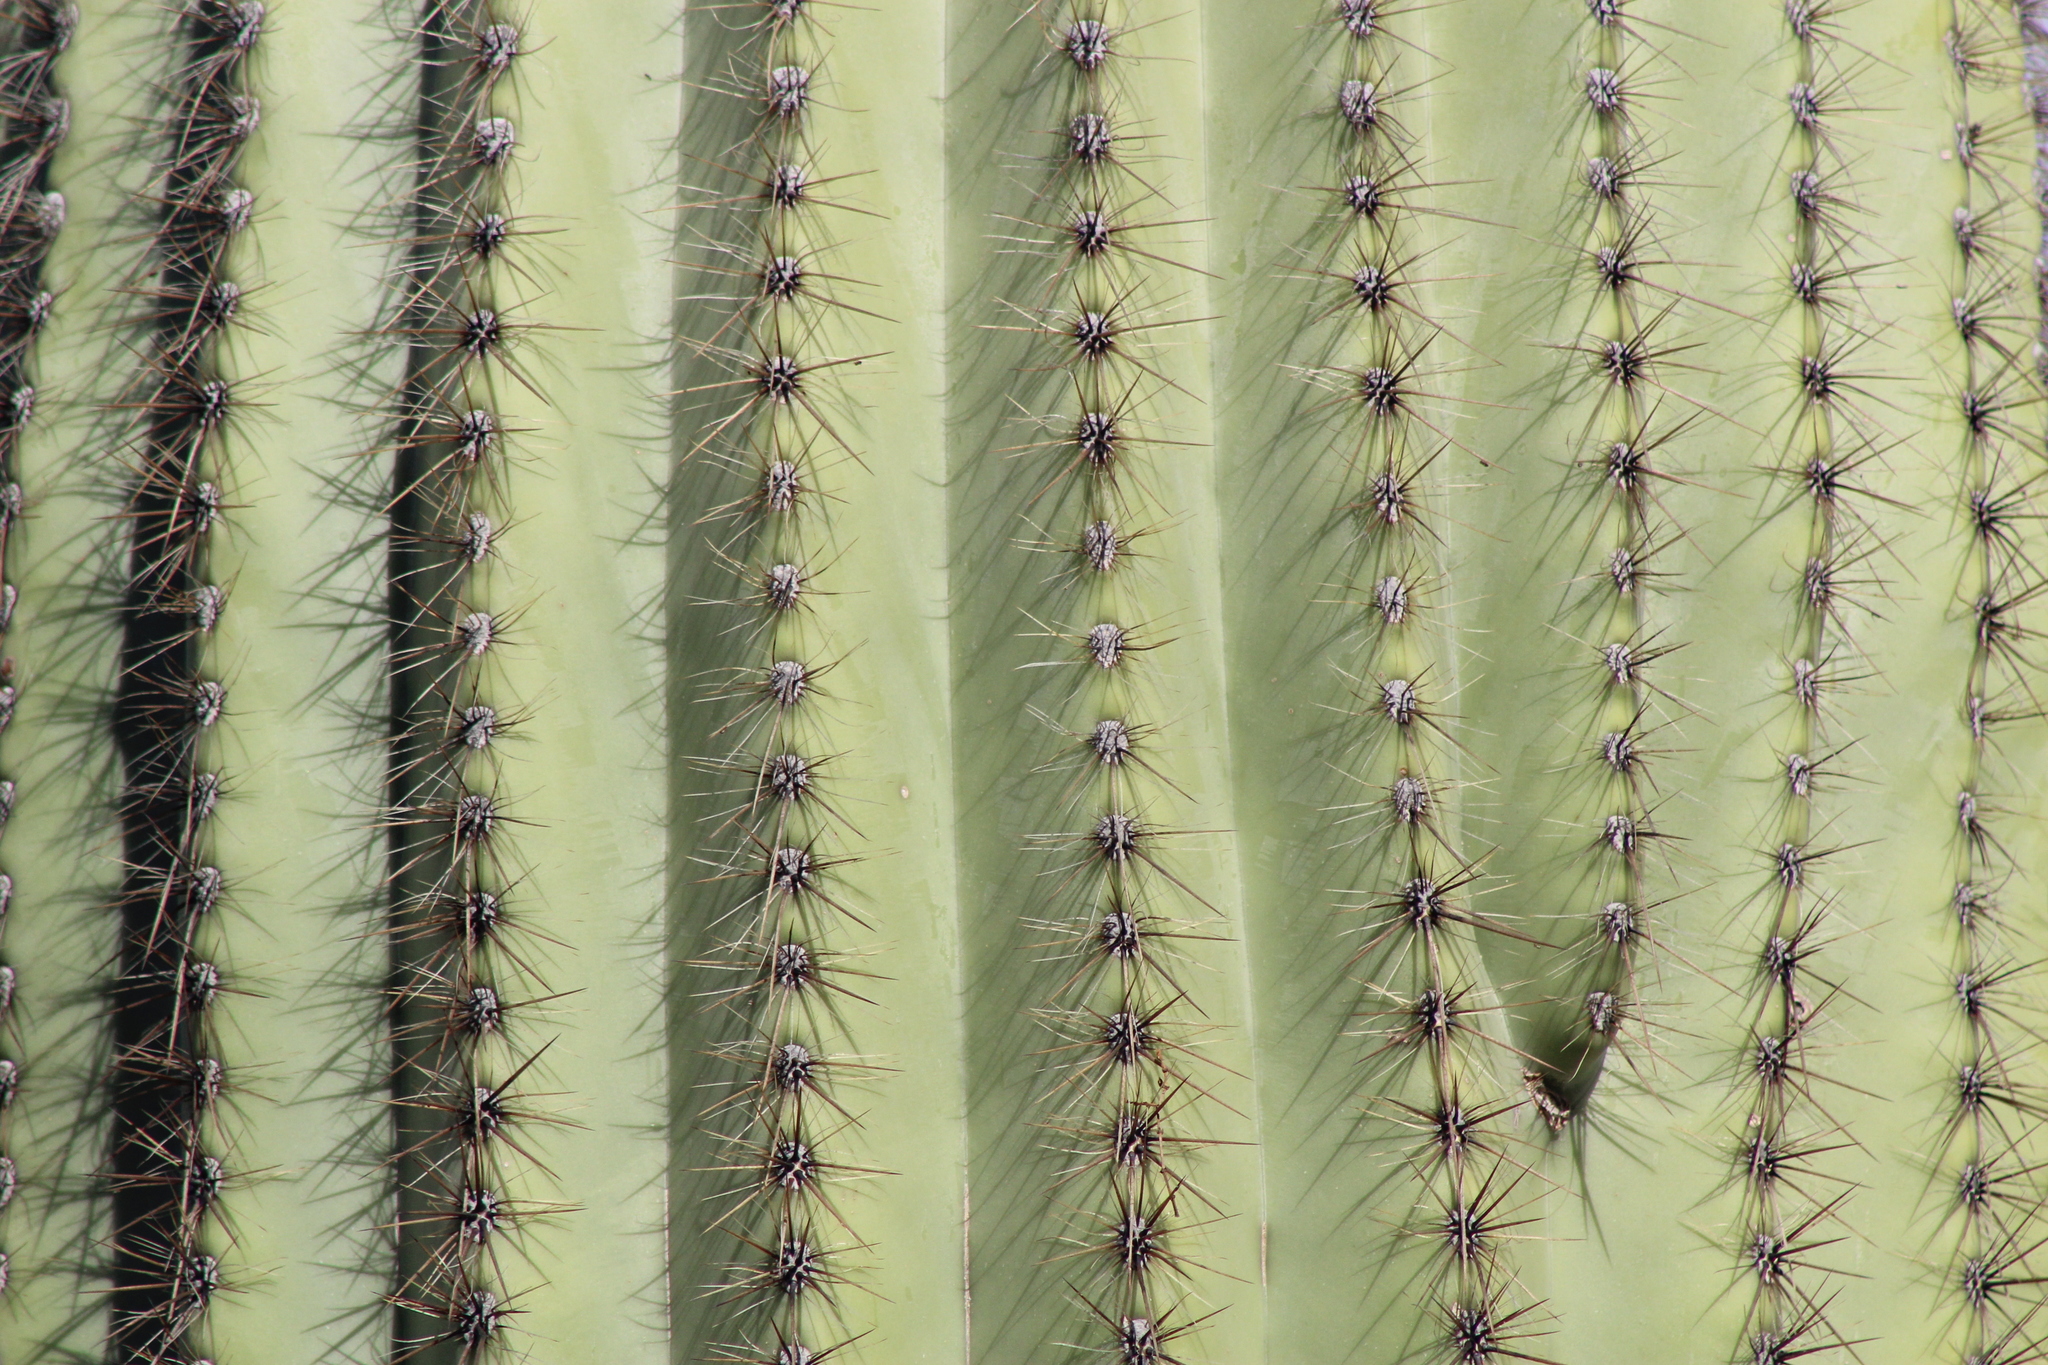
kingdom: Plantae
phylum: Tracheophyta
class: Magnoliopsida
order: Caryophyllales
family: Cactaceae
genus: Carnegiea
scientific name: Carnegiea gigantea
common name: Saguaro
